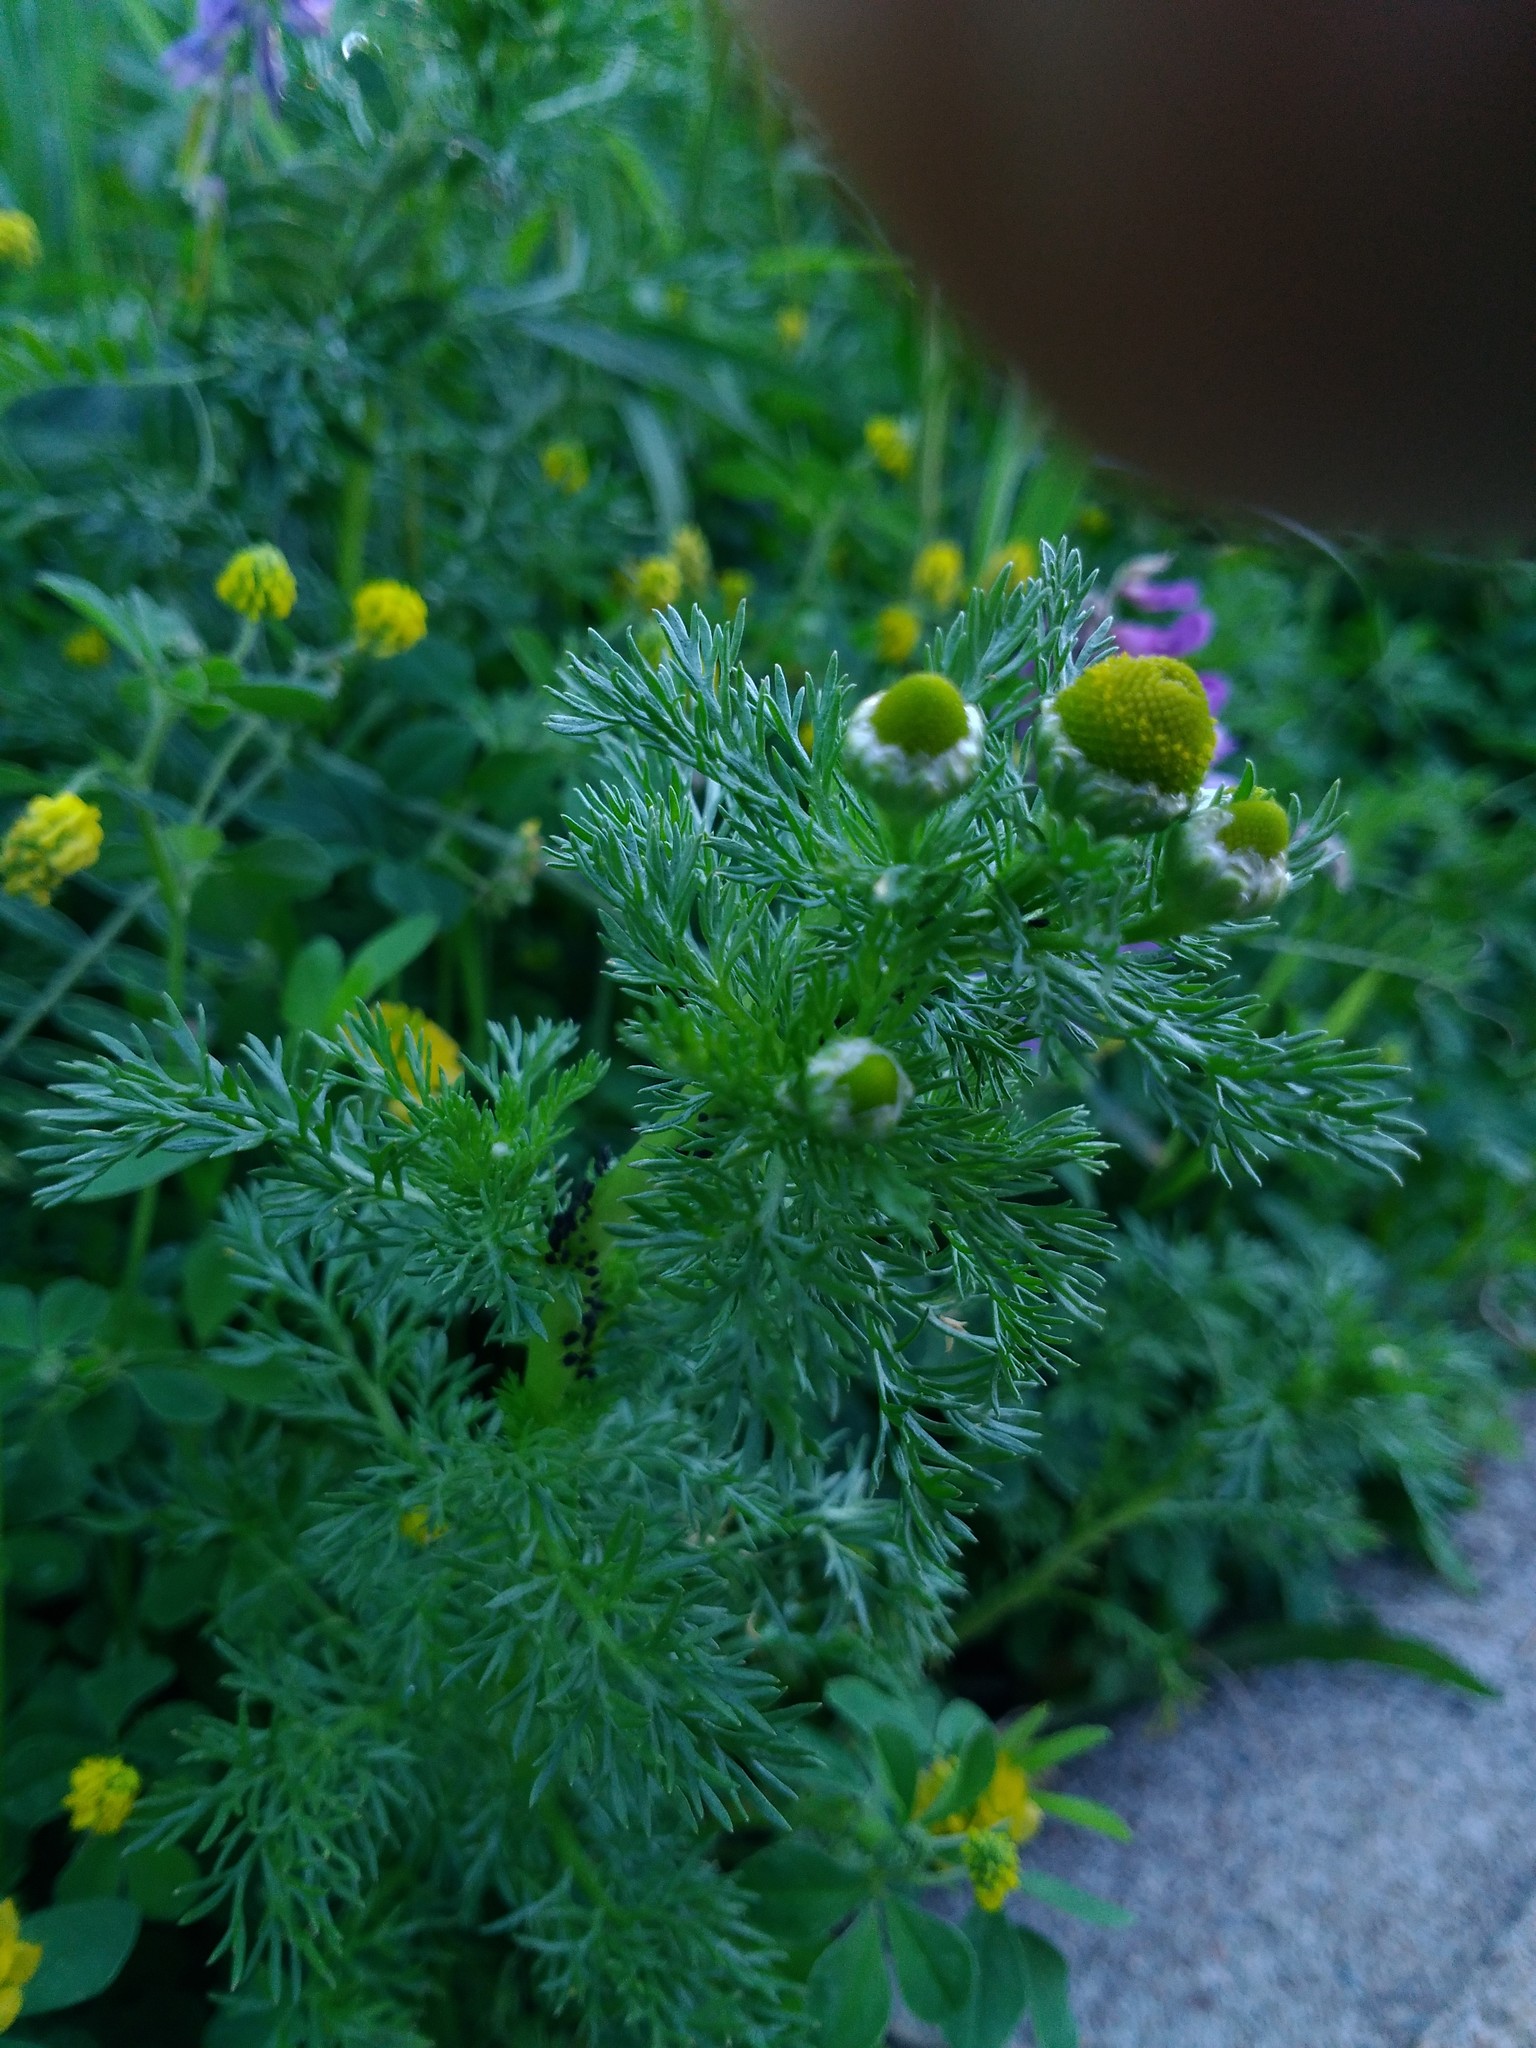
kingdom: Plantae
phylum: Tracheophyta
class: Magnoliopsida
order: Asterales
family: Asteraceae
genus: Matricaria
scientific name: Matricaria discoidea
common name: Disc mayweed
